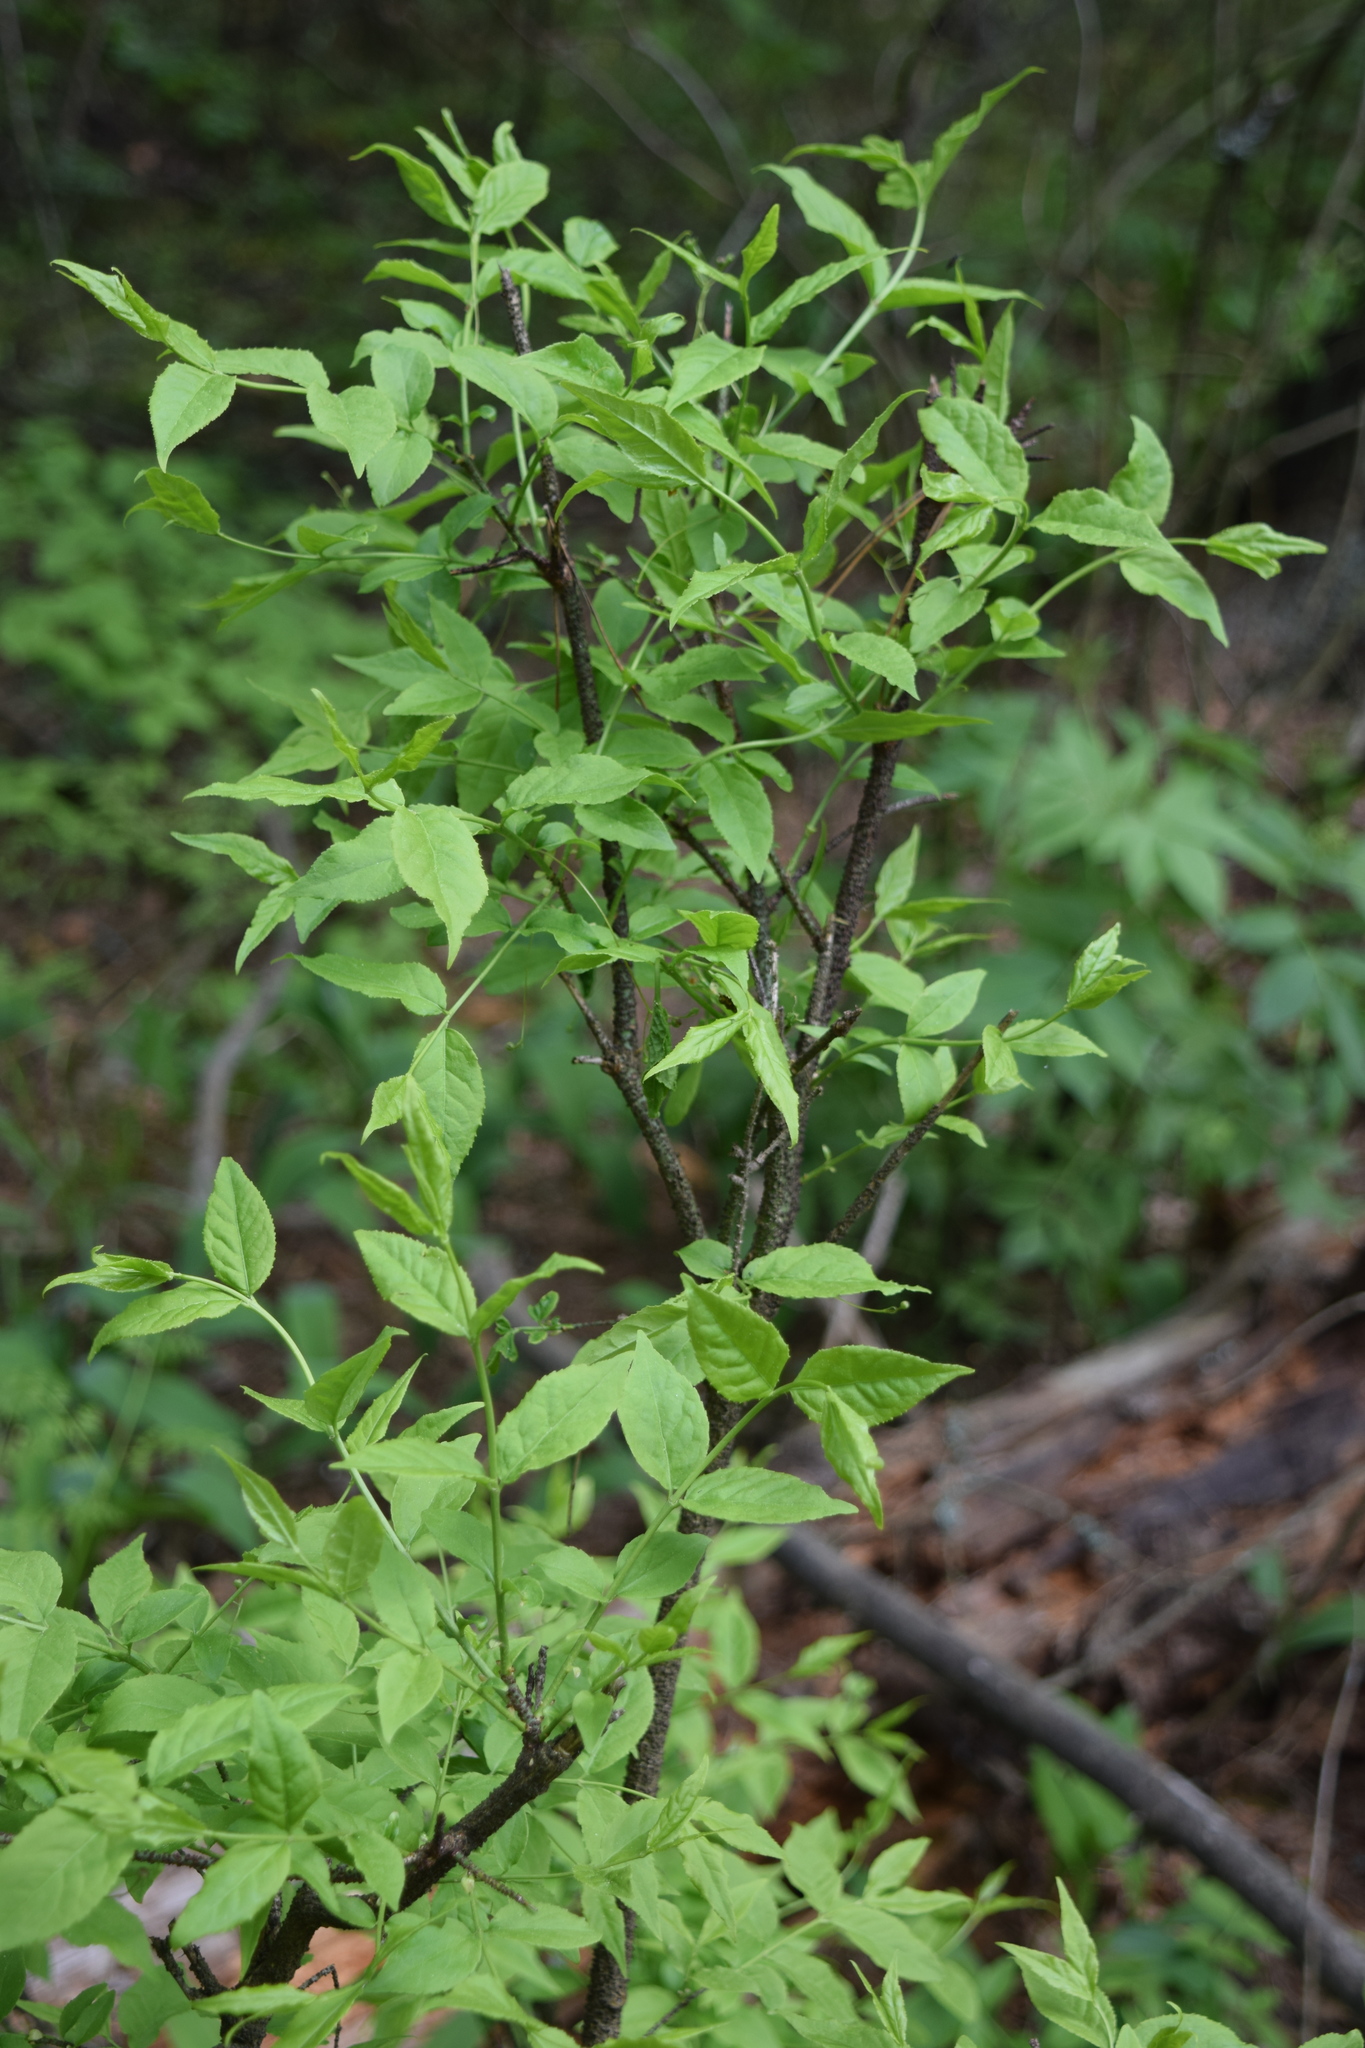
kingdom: Plantae
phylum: Tracheophyta
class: Magnoliopsida
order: Celastrales
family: Celastraceae
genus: Euonymus
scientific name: Euonymus verrucosus
